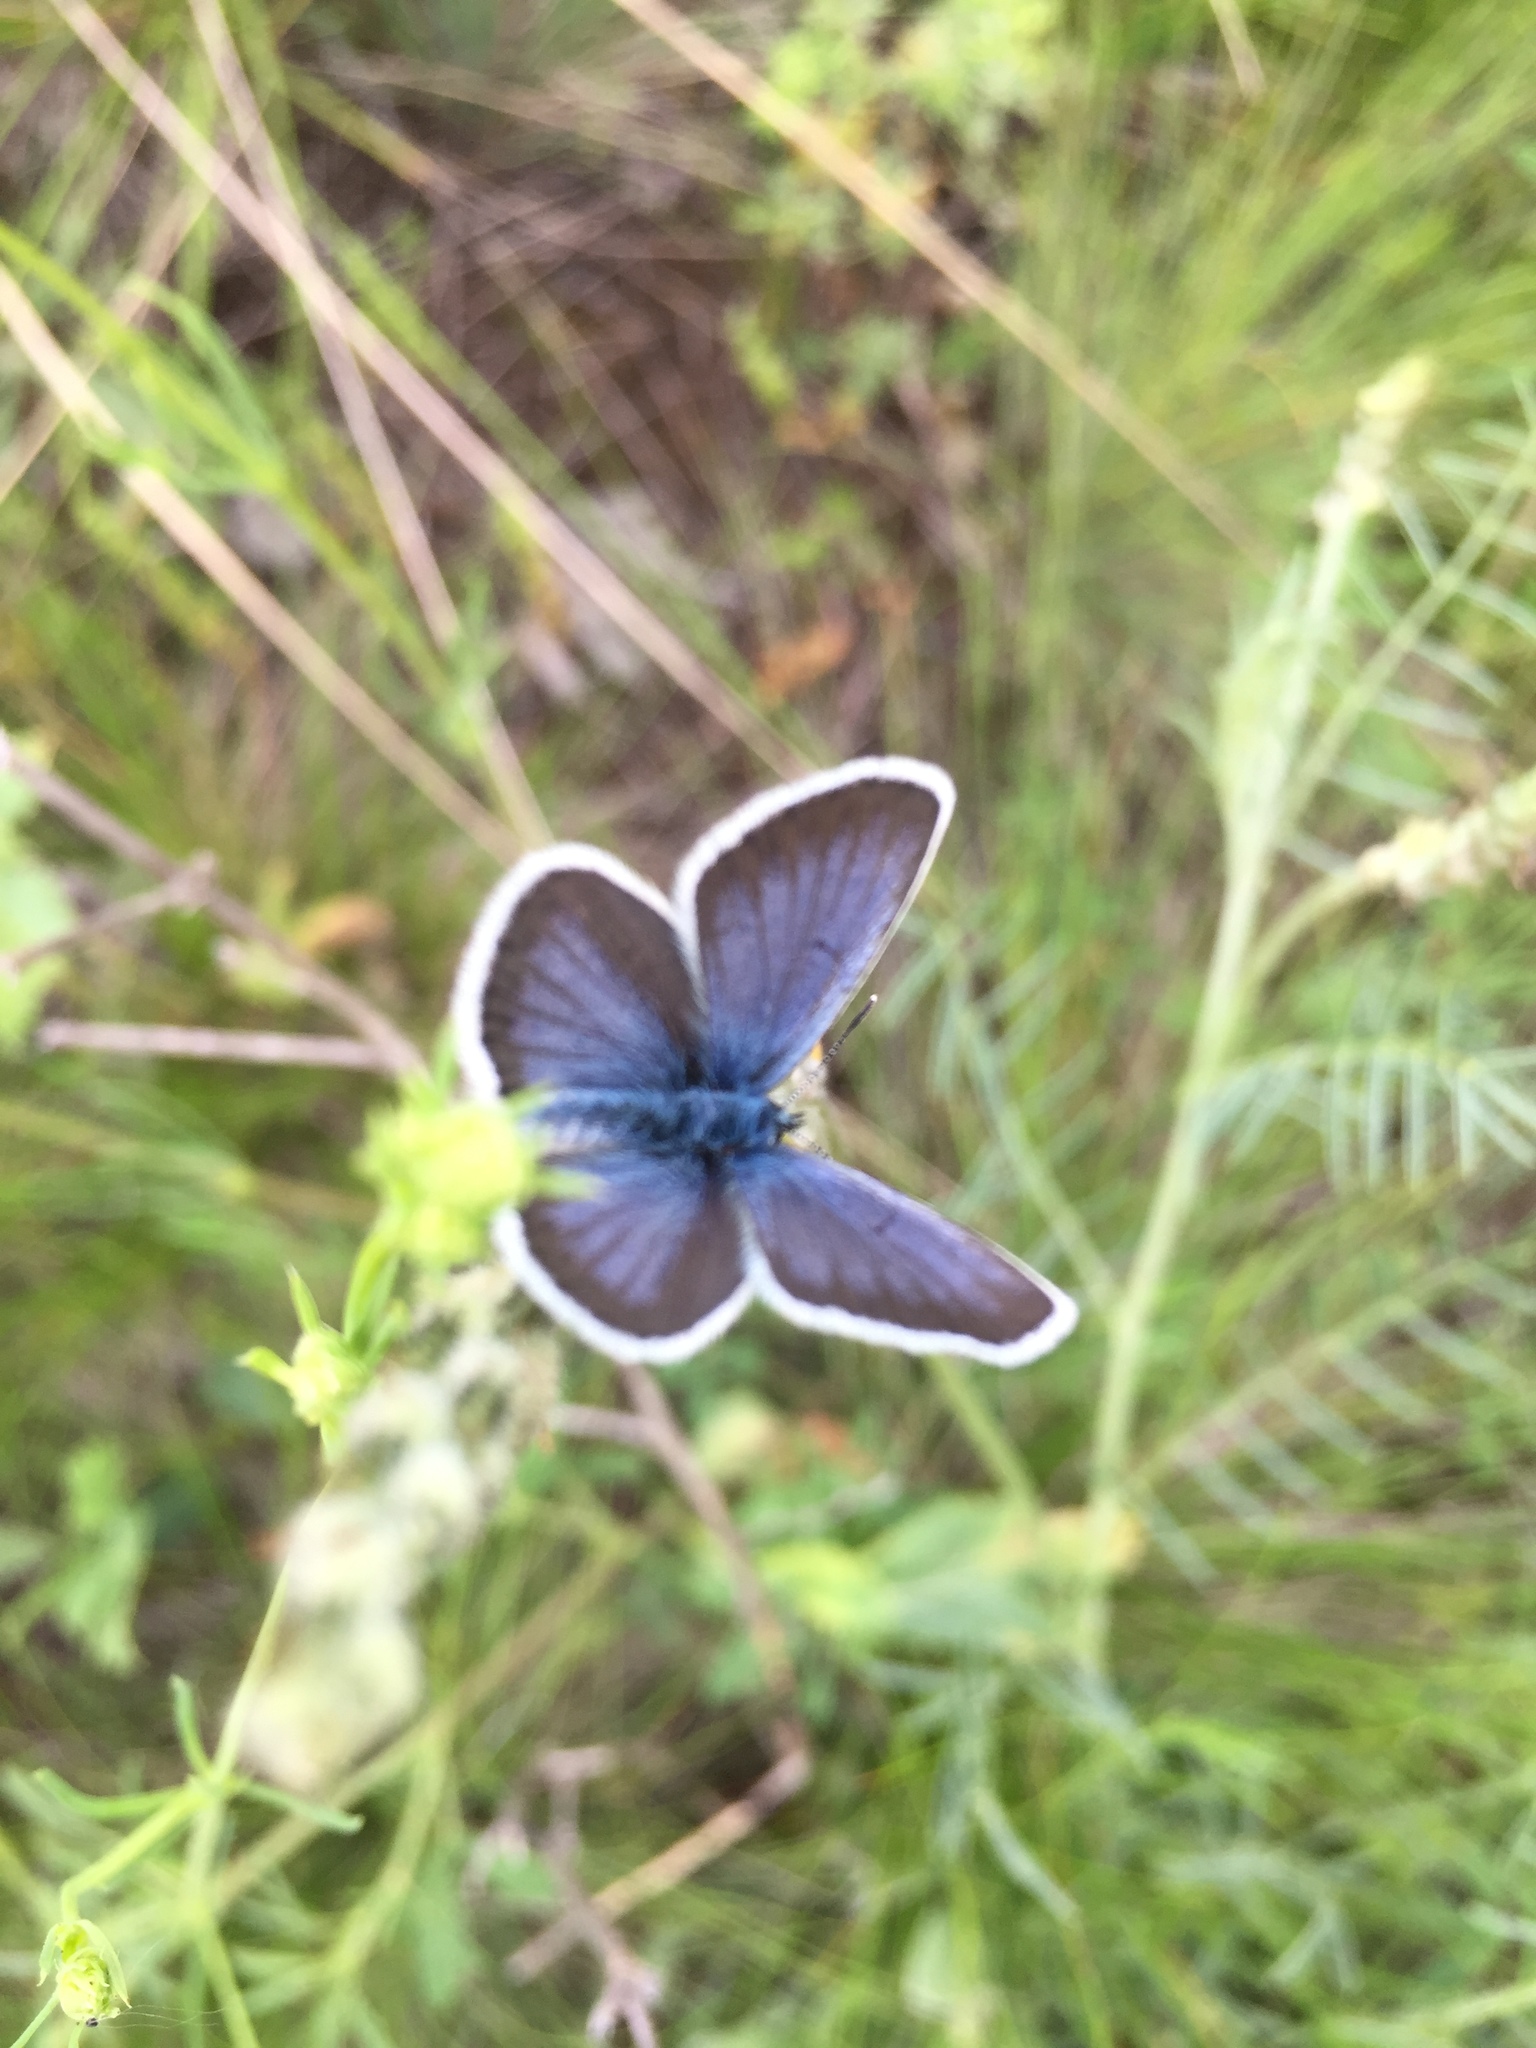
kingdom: Animalia
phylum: Arthropoda
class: Insecta
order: Lepidoptera
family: Lycaenidae
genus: Plebejus
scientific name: Plebejus argus
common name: Silver-studded blue
